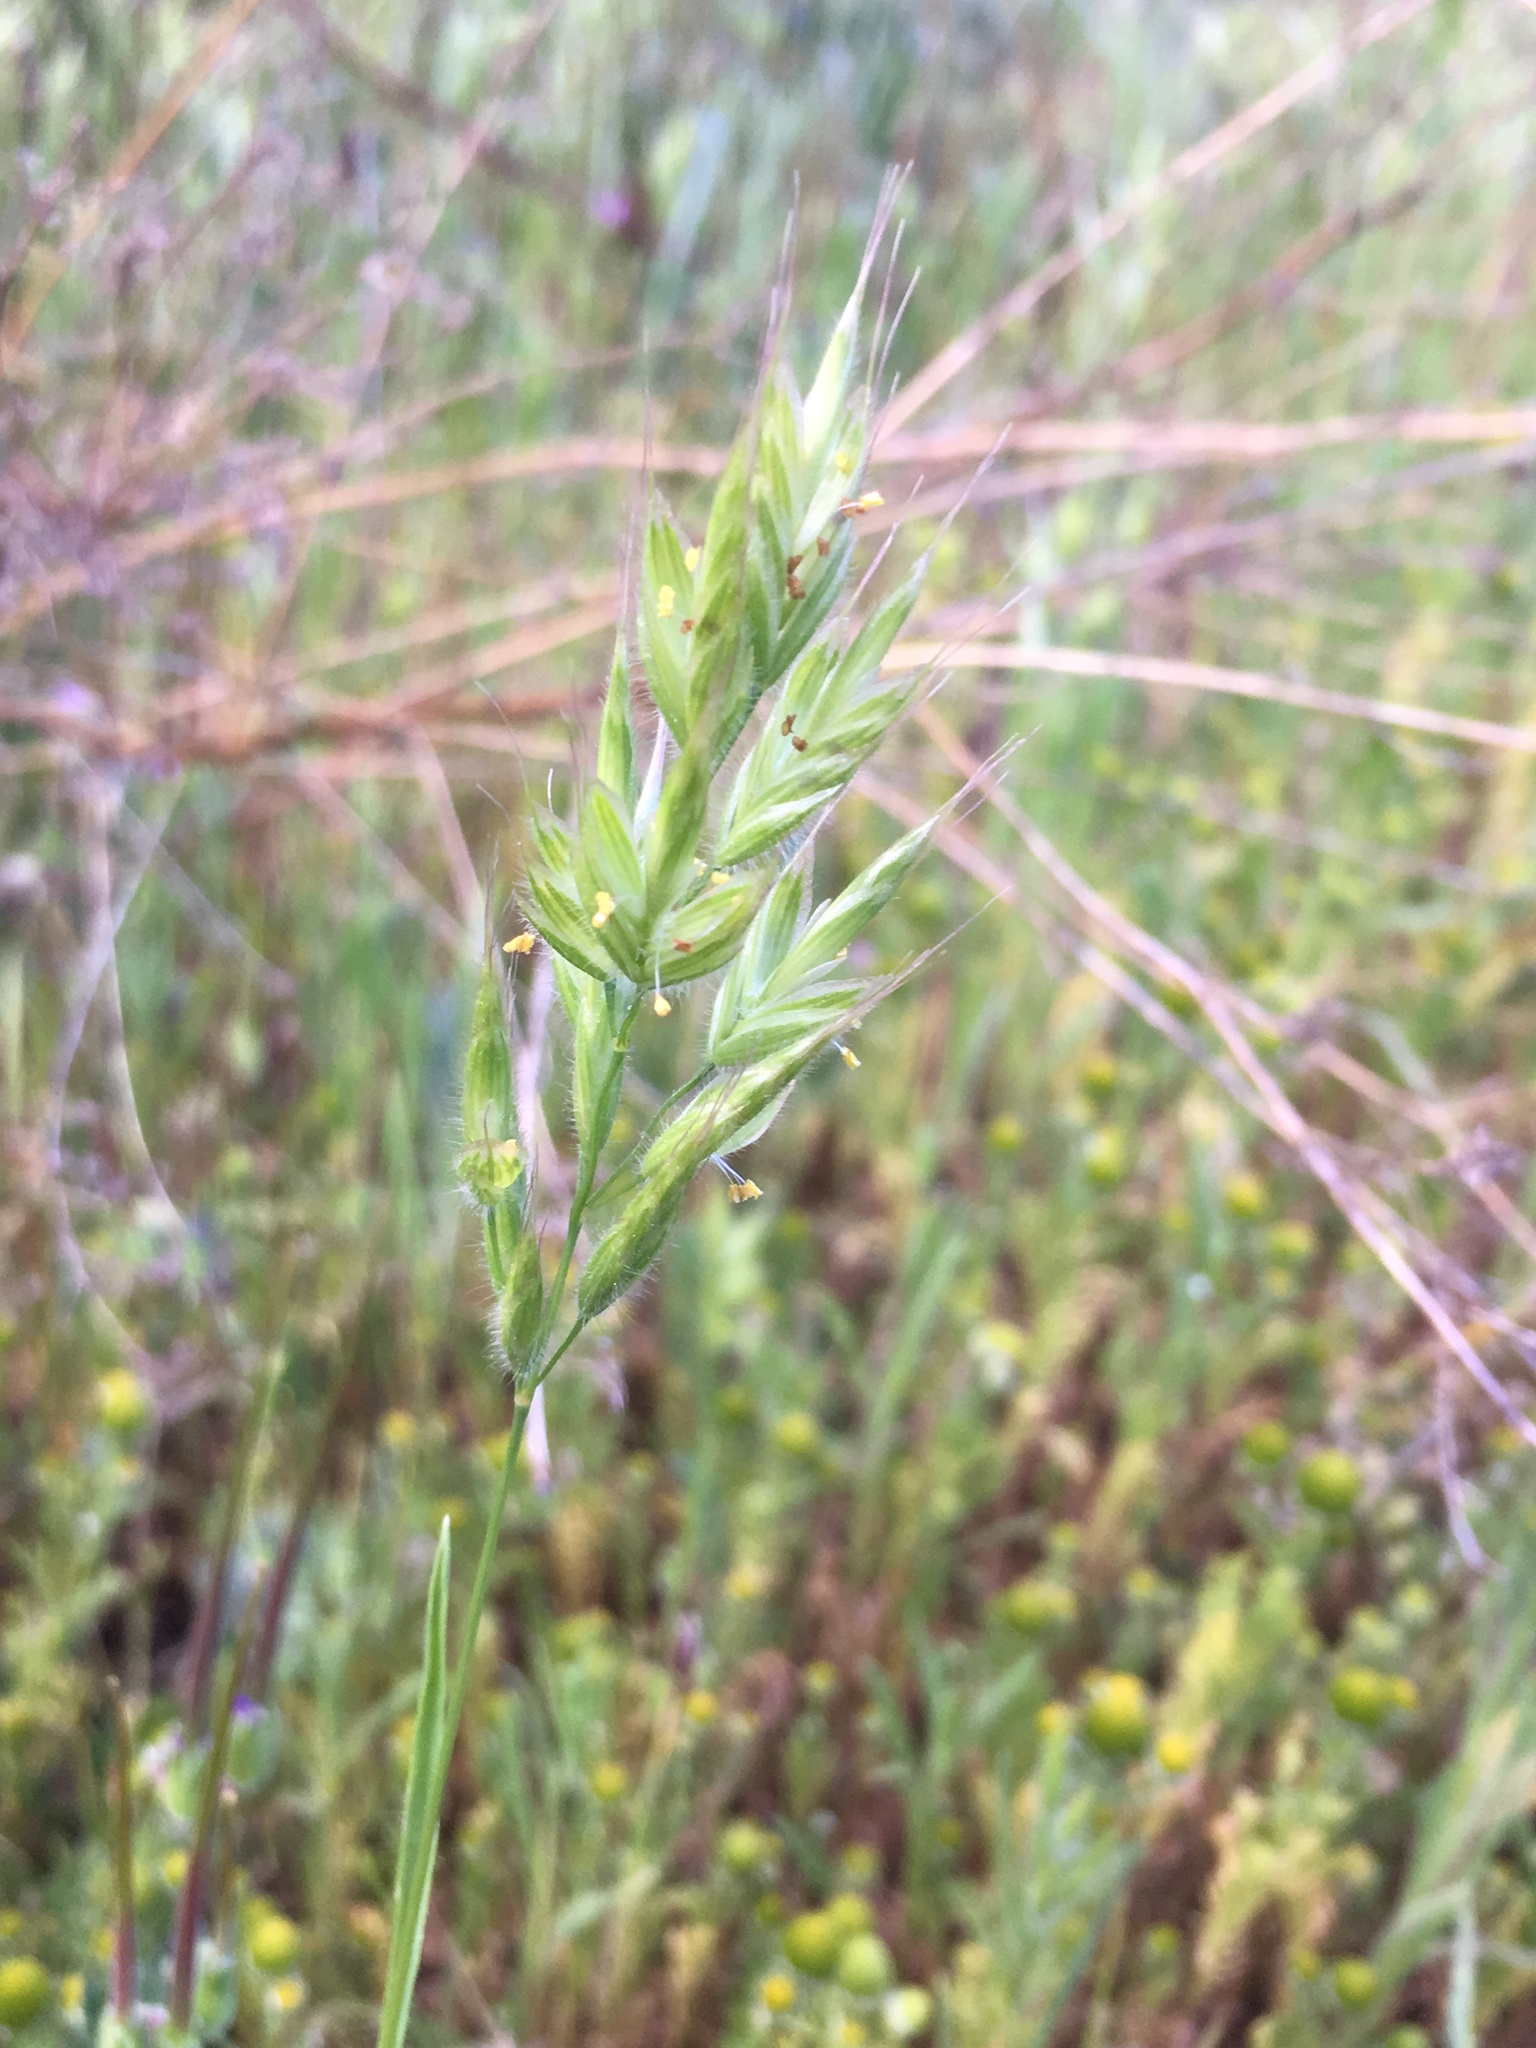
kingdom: Plantae
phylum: Tracheophyta
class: Liliopsida
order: Poales
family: Poaceae
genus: Bromus
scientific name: Bromus hordeaceus
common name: Soft brome
